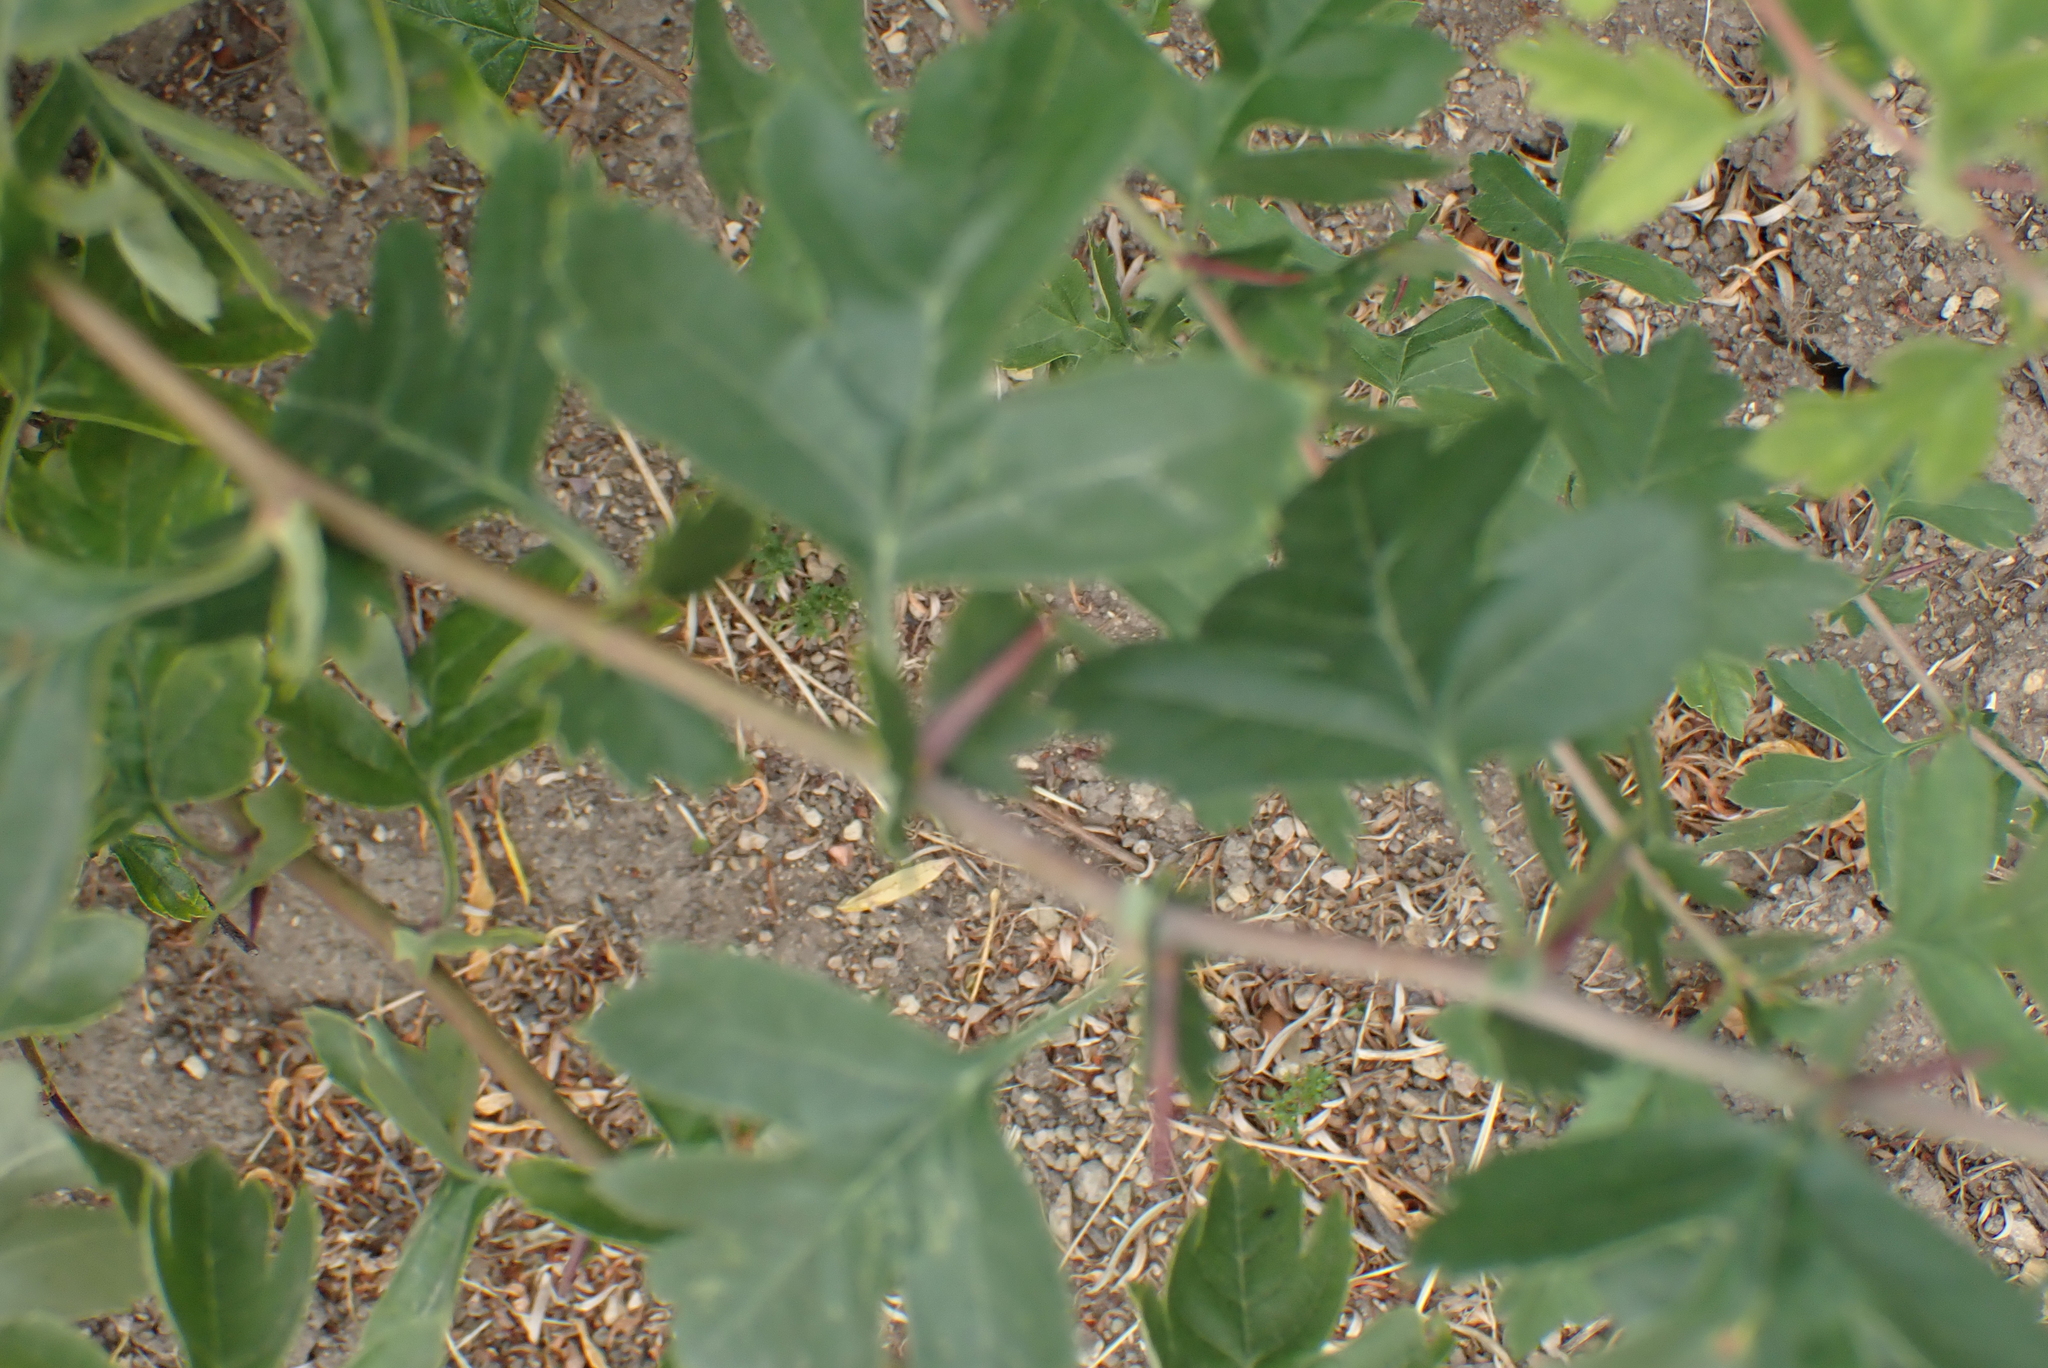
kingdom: Plantae
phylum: Tracheophyta
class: Magnoliopsida
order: Rosales
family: Rosaceae
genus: Crataegus
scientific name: Crataegus monogyna
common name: Hawthorn
